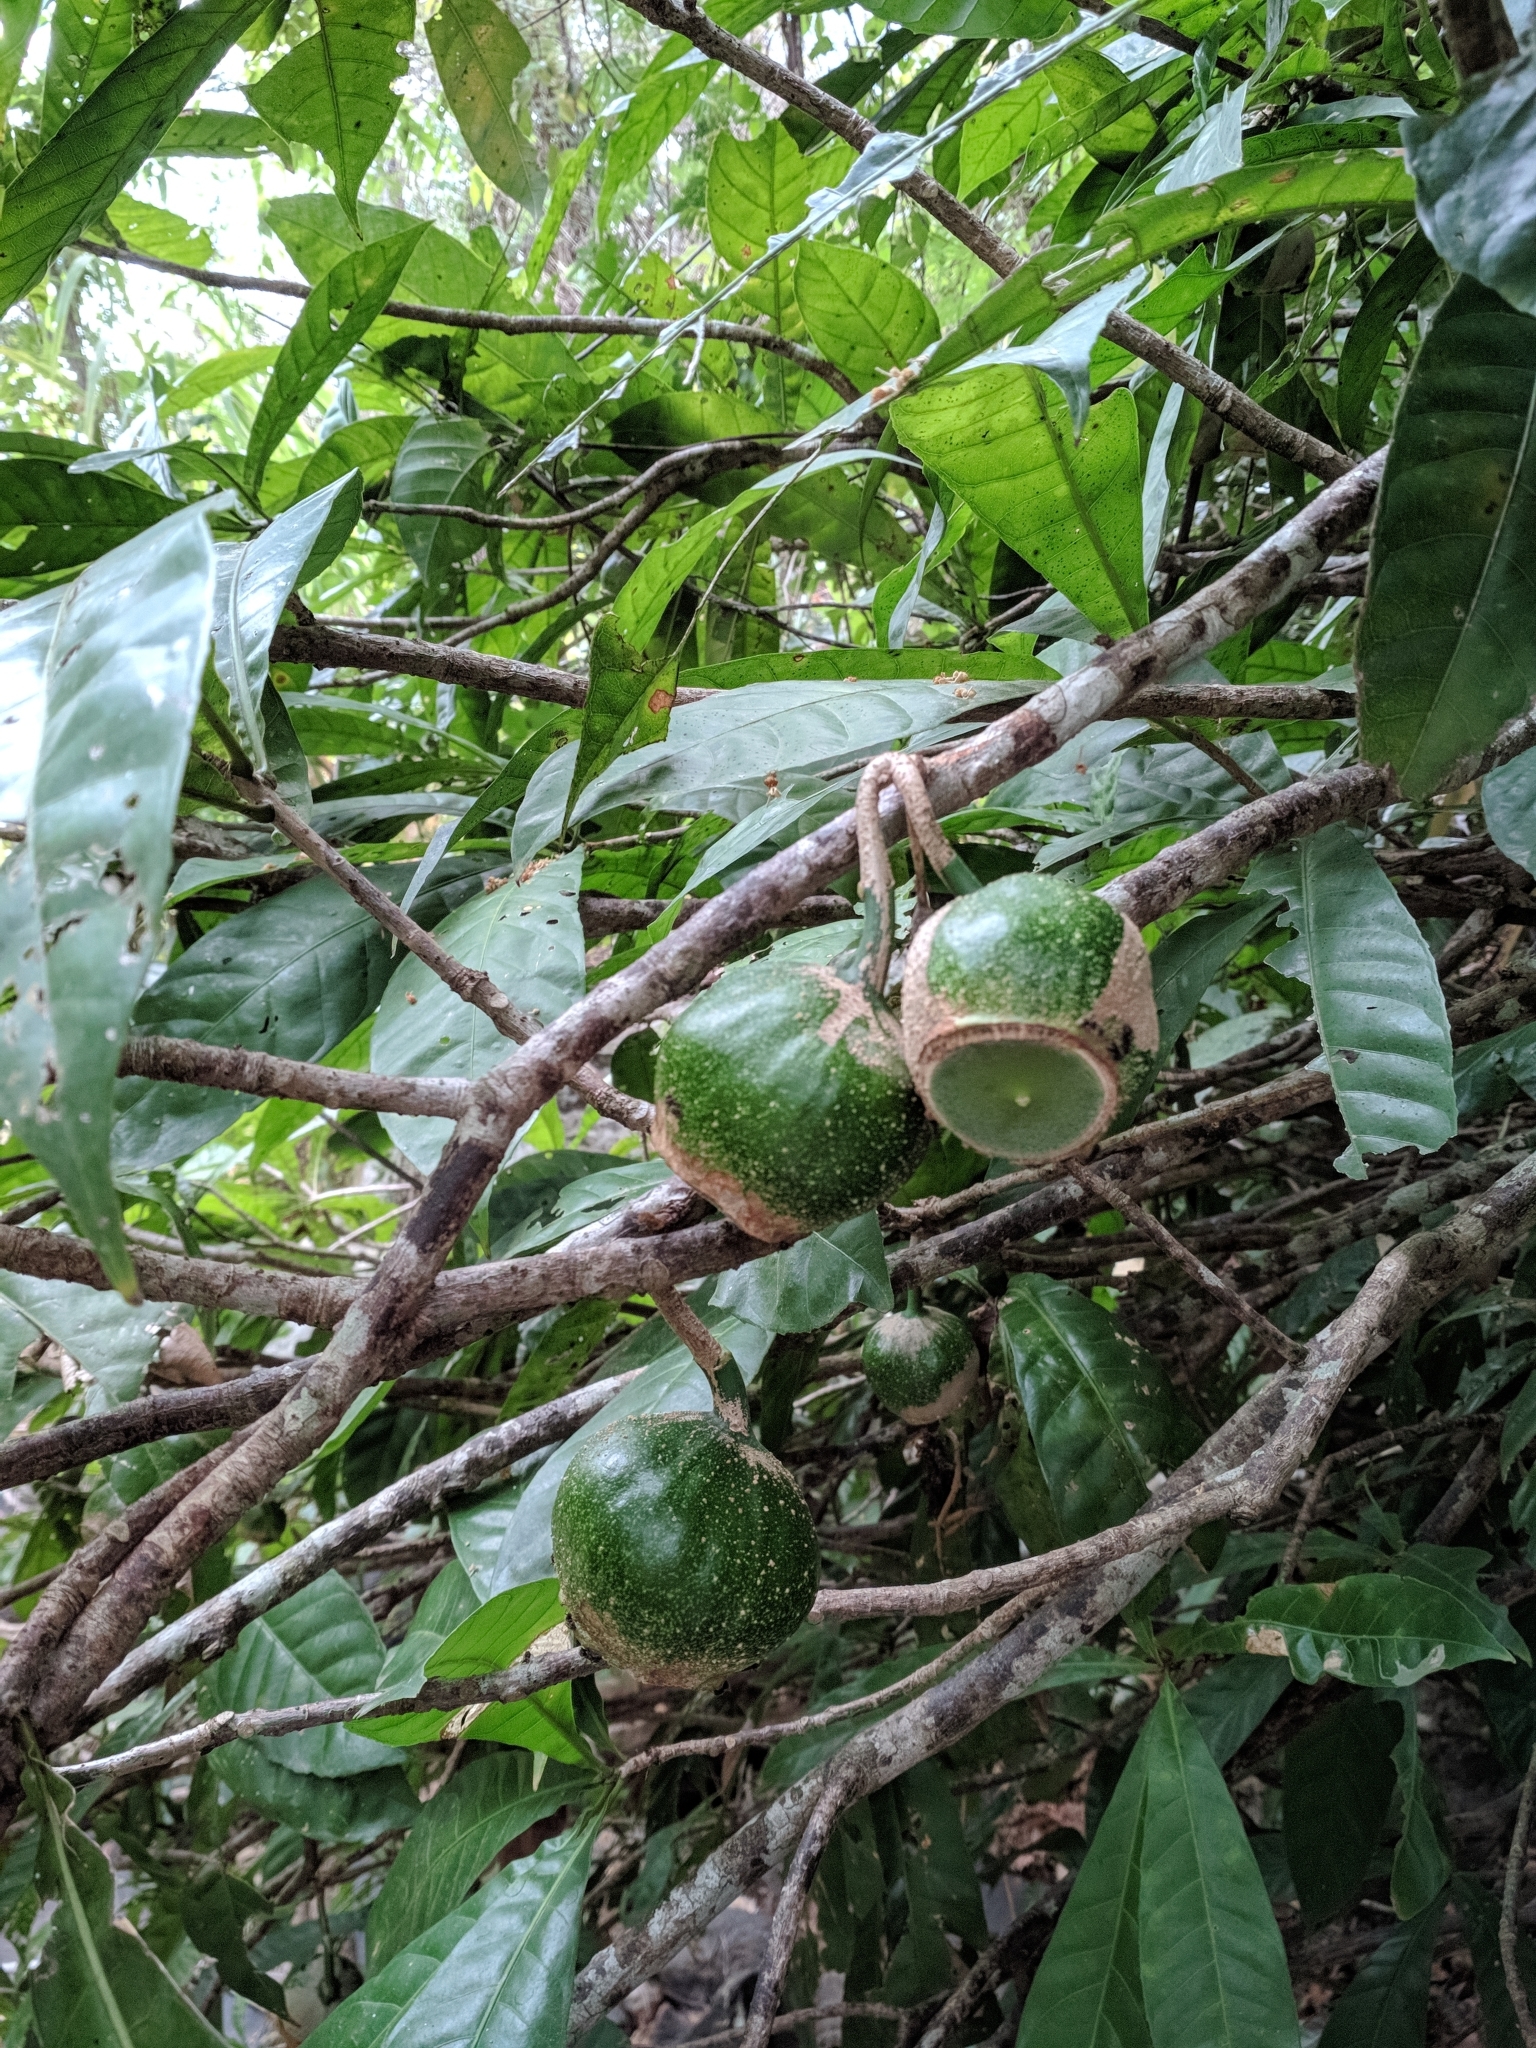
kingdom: Plantae
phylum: Tracheophyta
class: Magnoliopsida
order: Ericales
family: Lecythidaceae
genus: Gustavia
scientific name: Gustavia augusta
